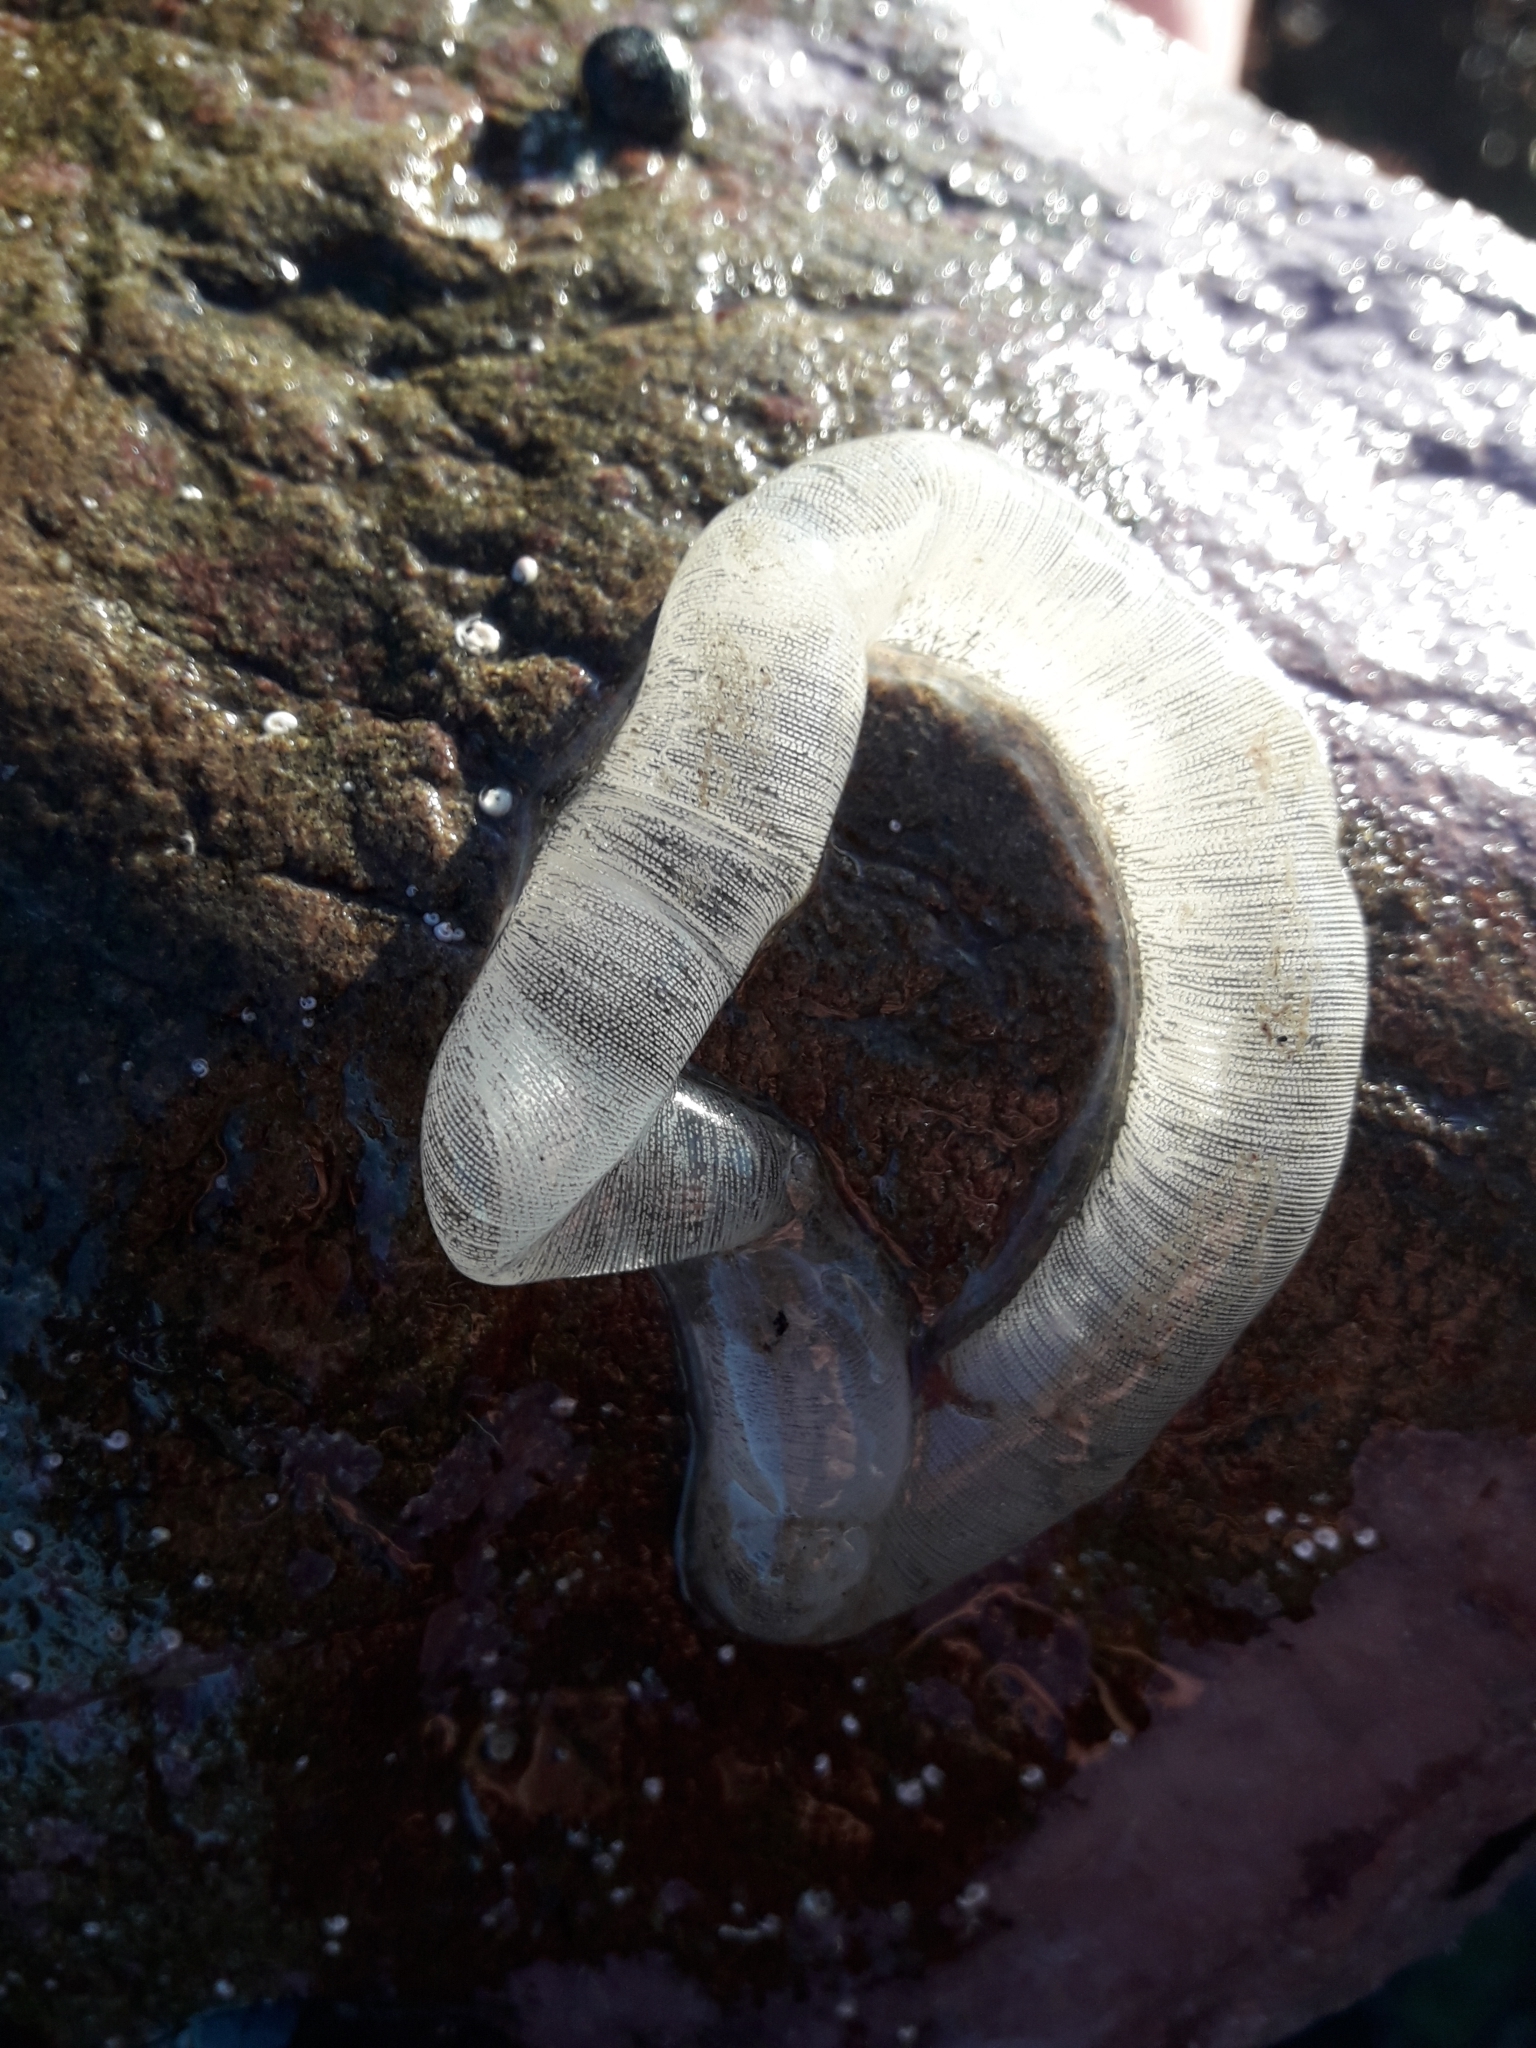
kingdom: Animalia
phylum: Mollusca
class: Gastropoda
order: Pleurobranchida
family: Pleurobranchaeidae
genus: Pleurobranchaea
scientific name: Pleurobranchaea maculata
